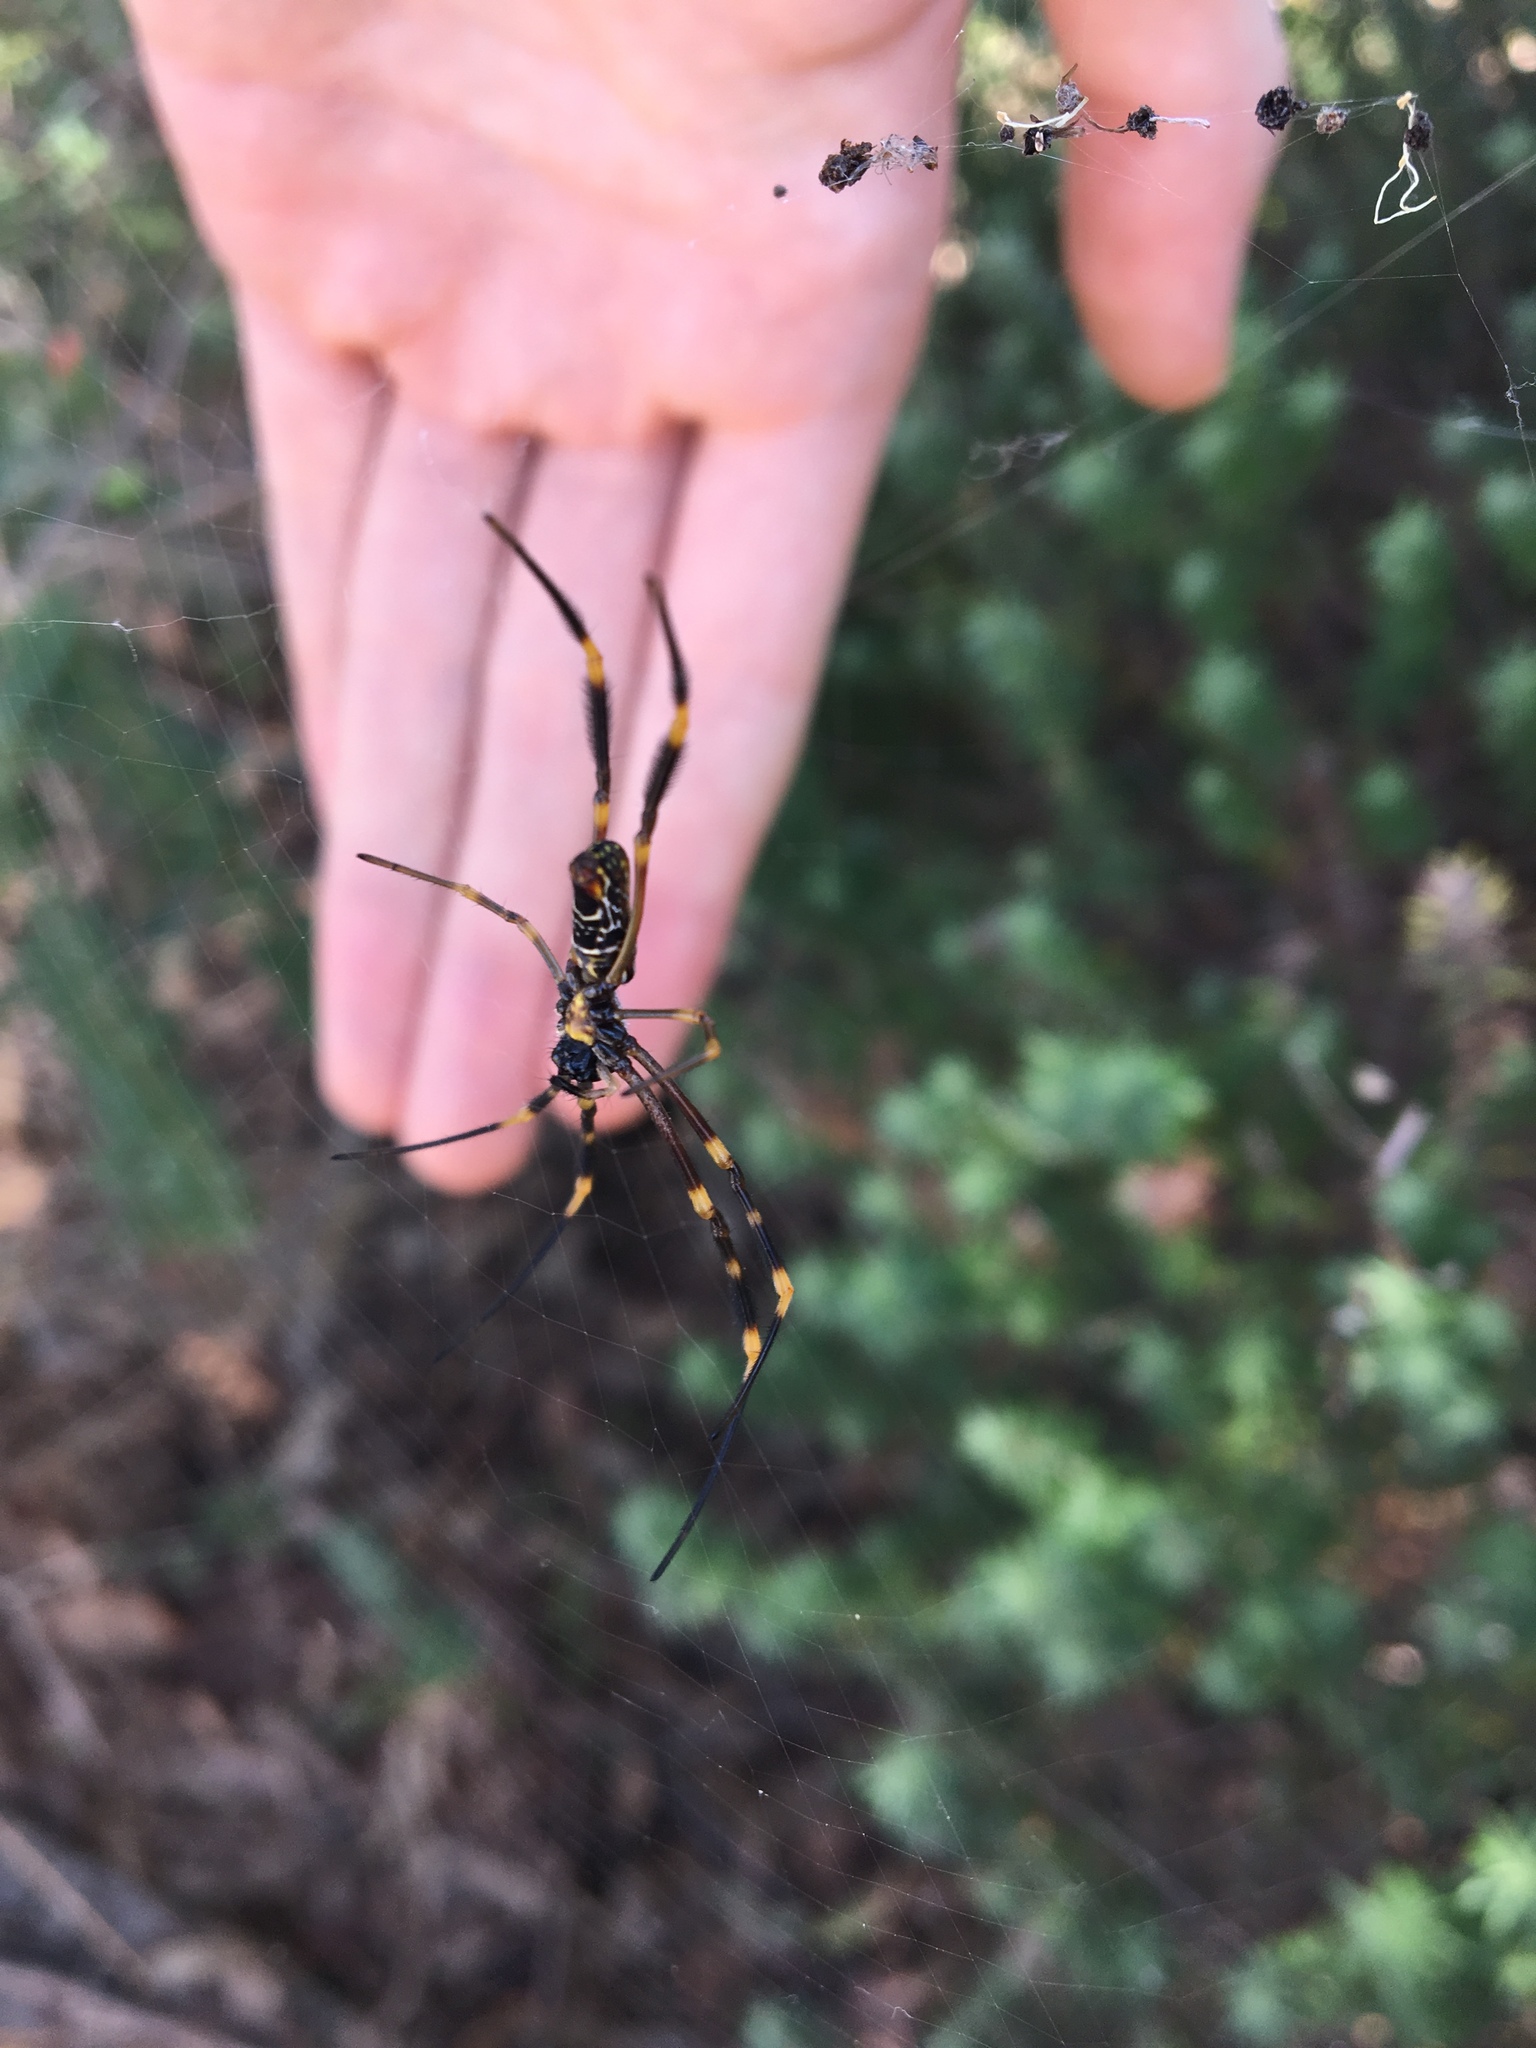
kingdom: Animalia
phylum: Arthropoda
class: Arachnida
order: Araneae
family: Araneidae
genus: Trichonephila
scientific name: Trichonephila plumipes
